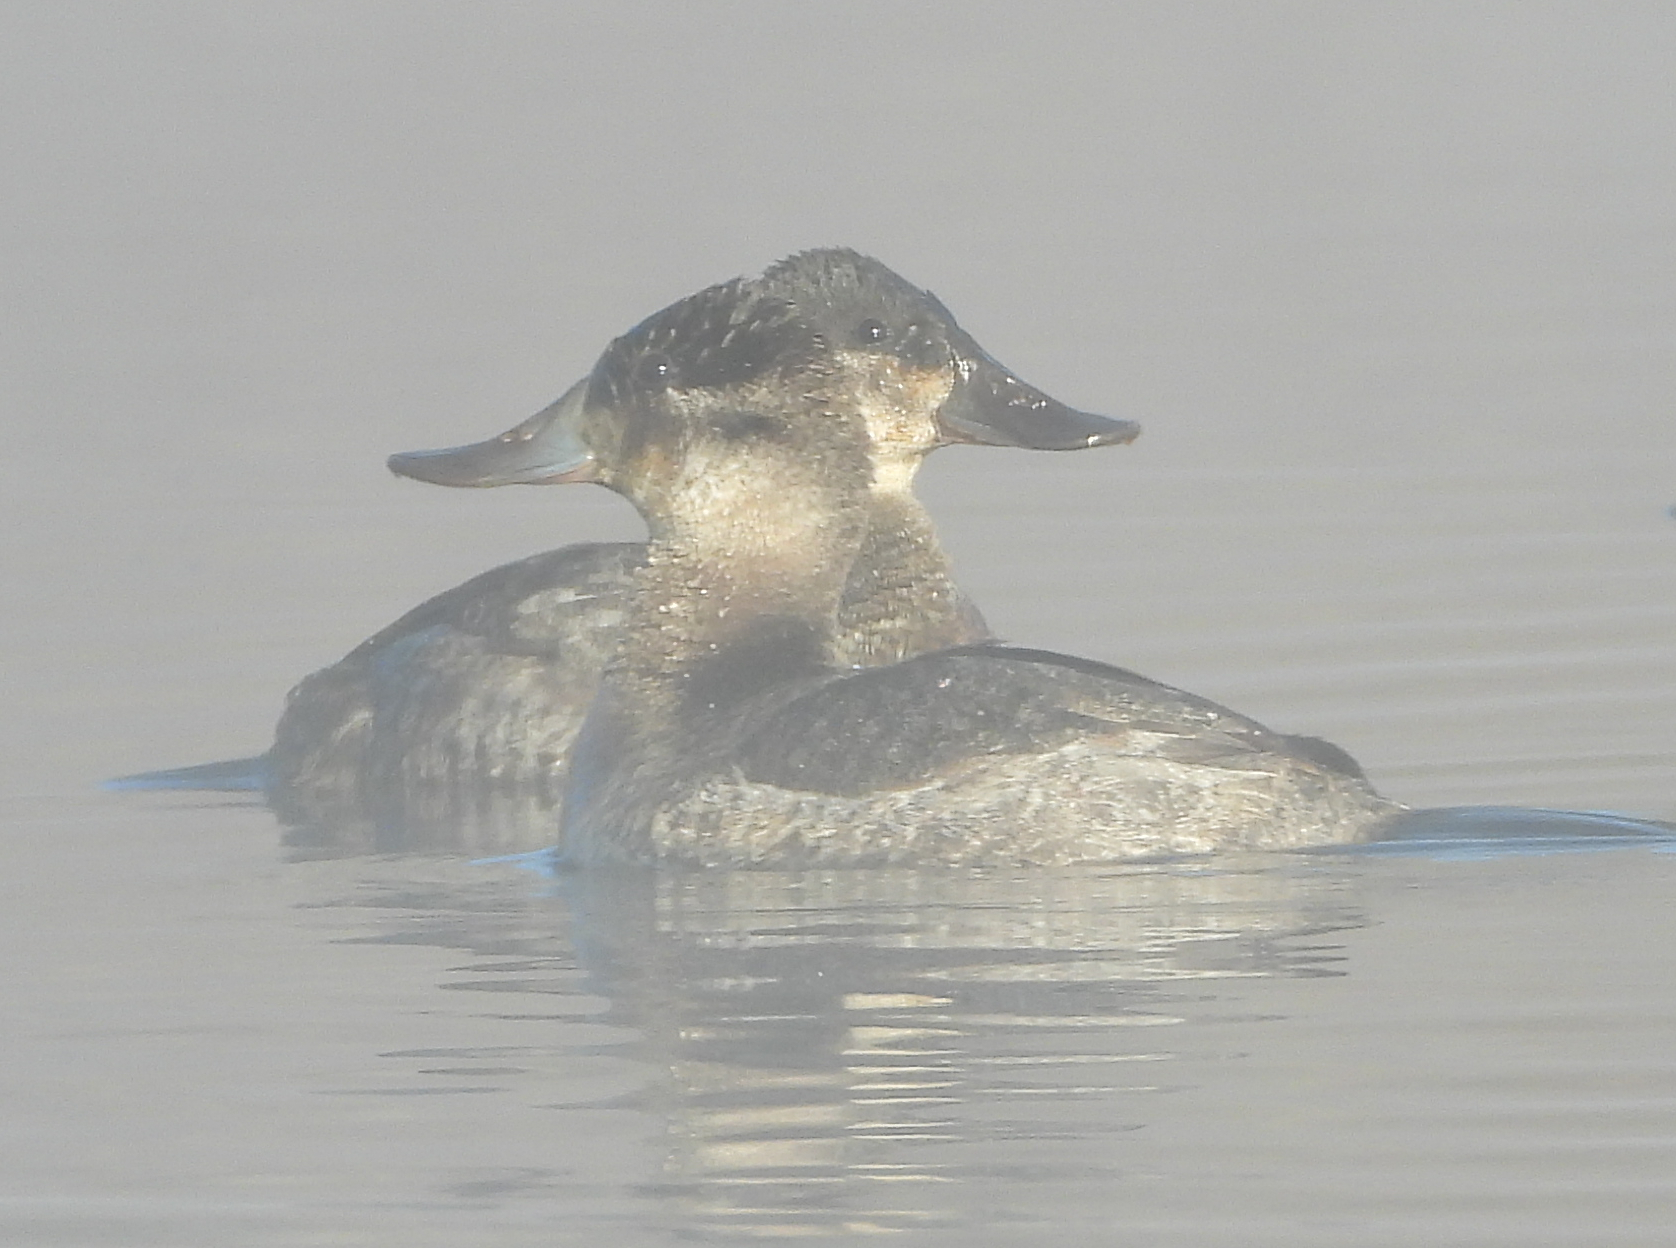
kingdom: Animalia
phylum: Chordata
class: Aves
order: Anseriformes
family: Anatidae
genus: Oxyura
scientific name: Oxyura jamaicensis
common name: Ruddy duck
